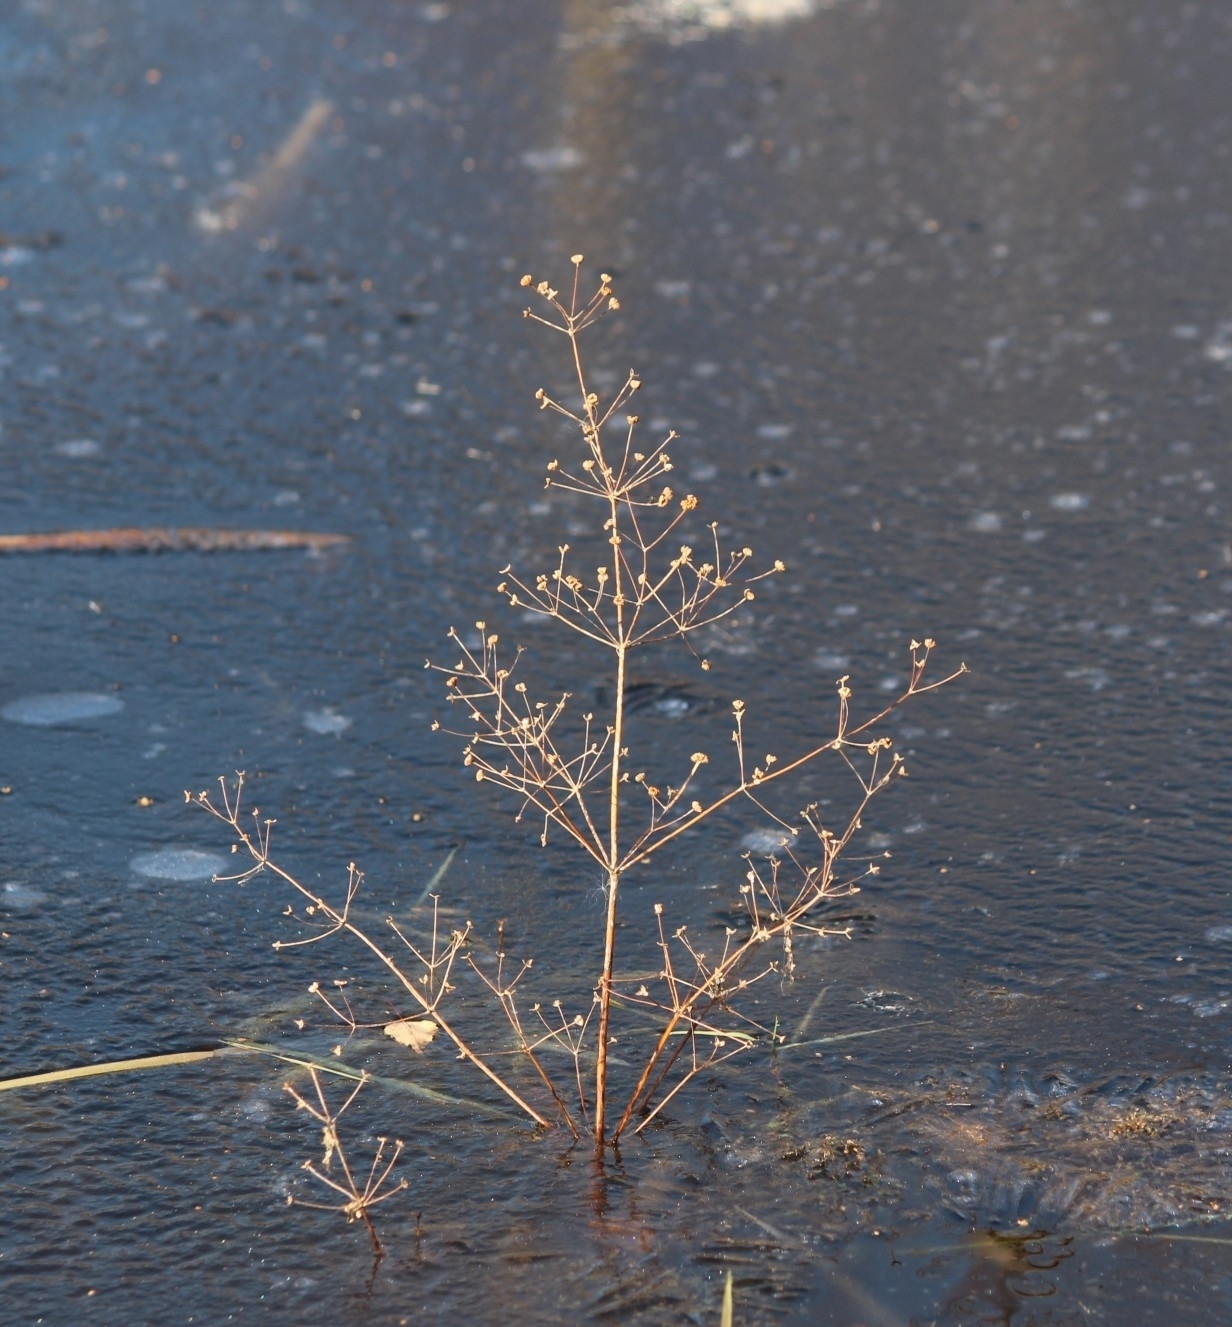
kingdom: Plantae
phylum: Tracheophyta
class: Liliopsida
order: Alismatales
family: Alismataceae
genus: Alisma
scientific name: Alisma plantago-aquatica
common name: Water-plantain
